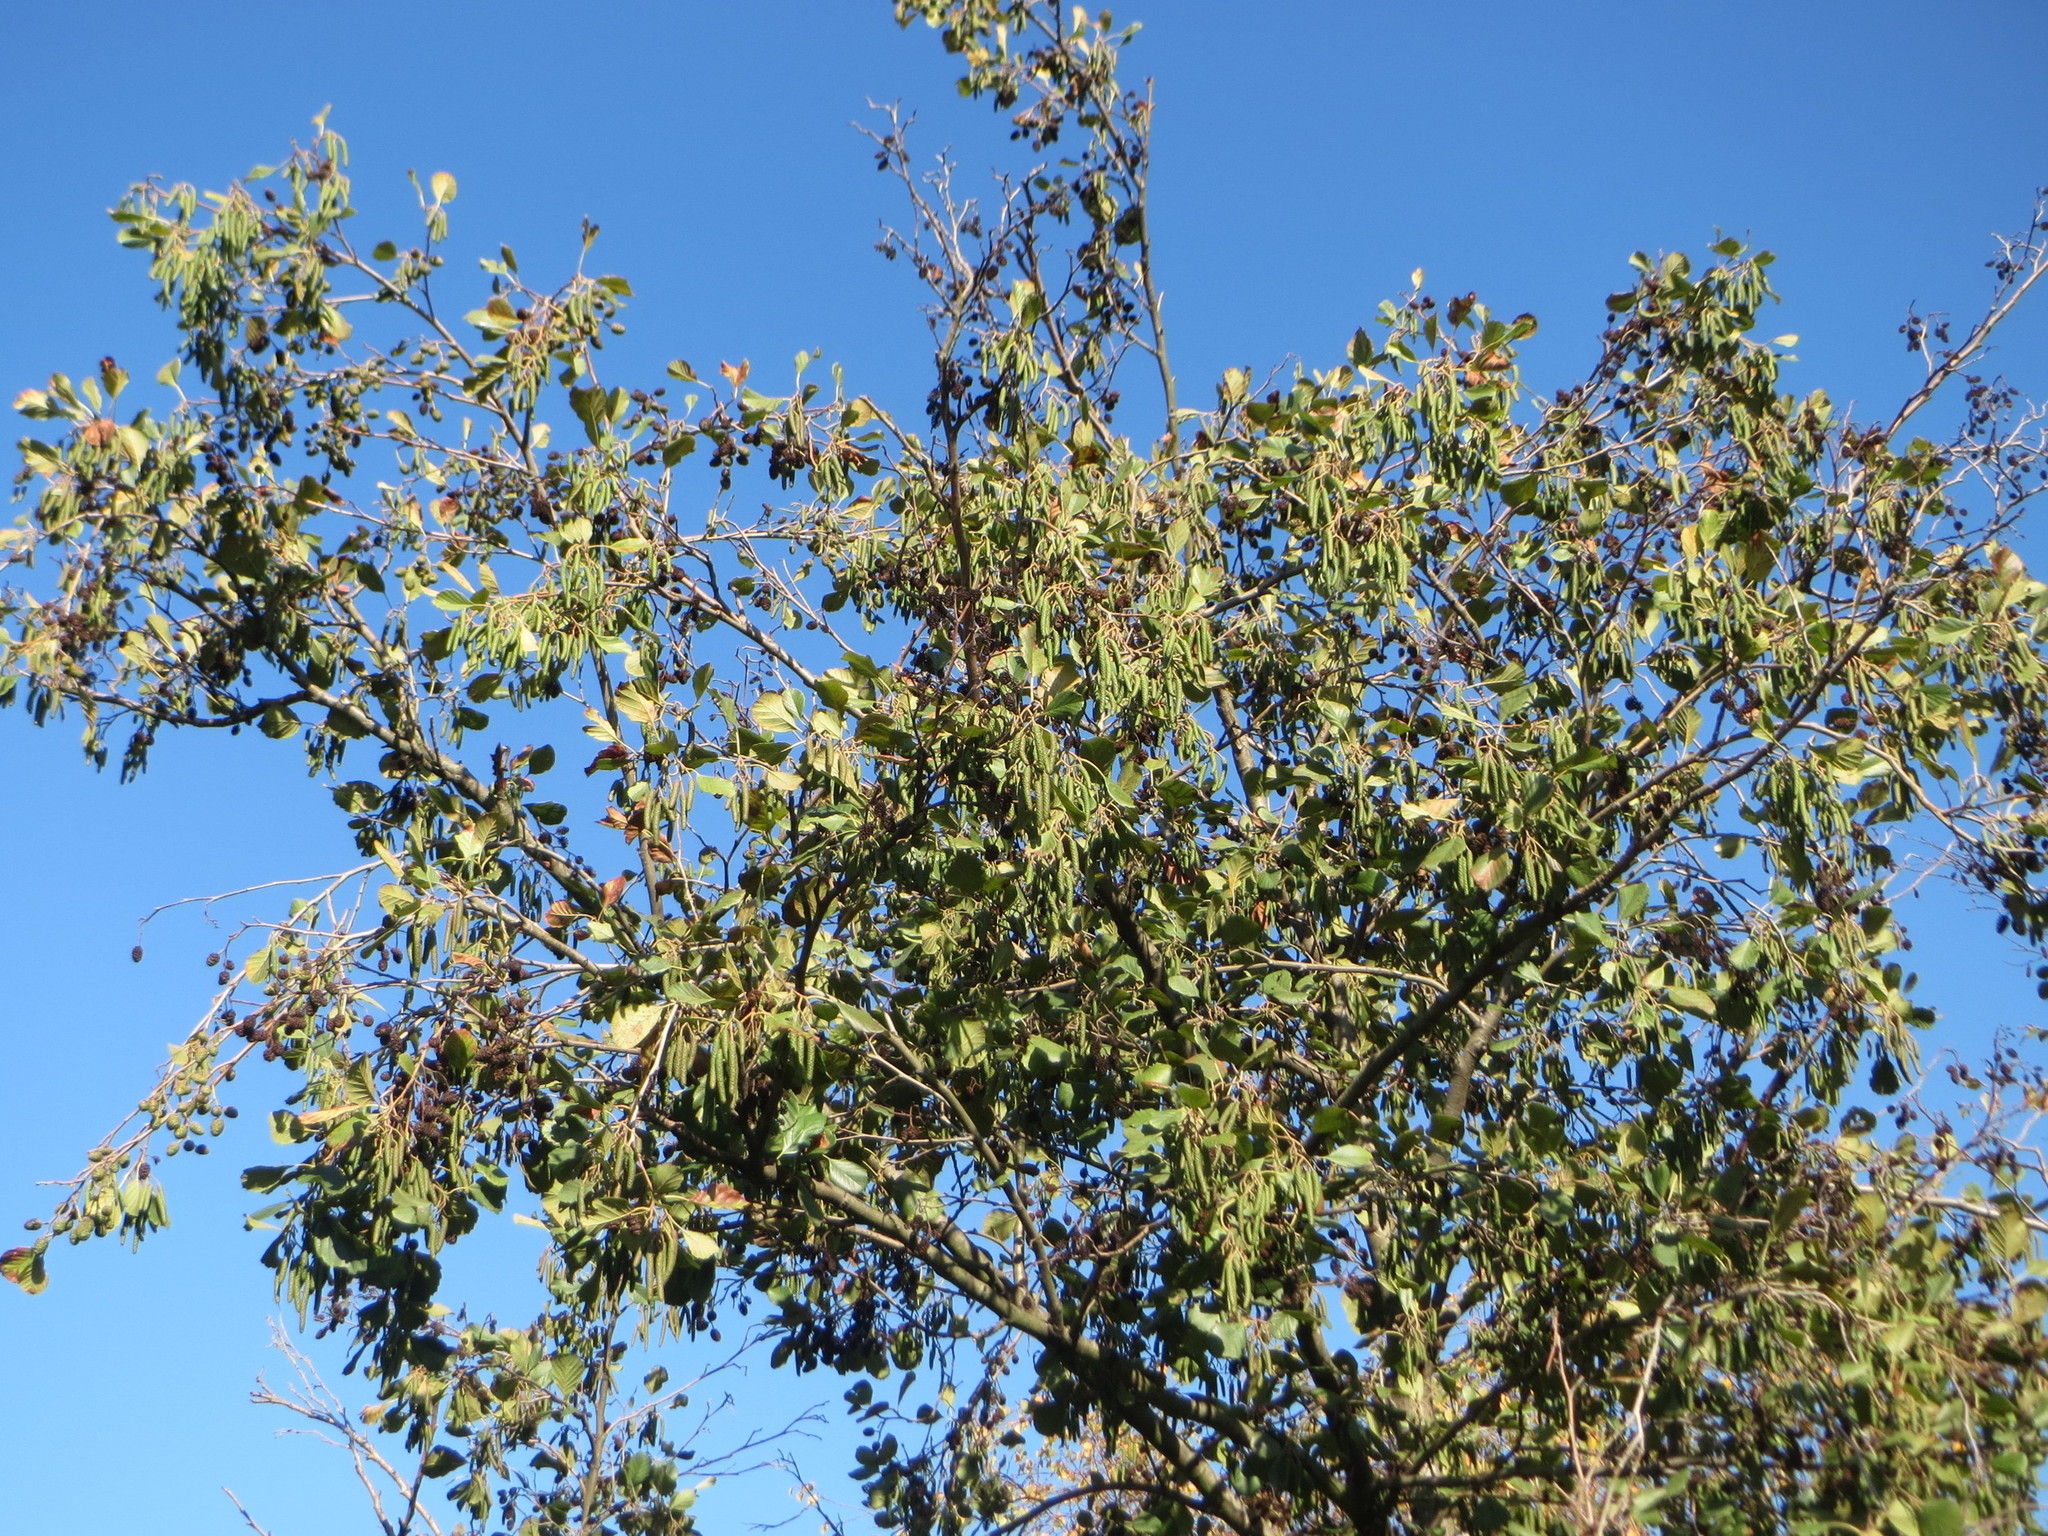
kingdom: Plantae
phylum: Tracheophyta
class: Magnoliopsida
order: Fagales
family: Betulaceae
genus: Alnus
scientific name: Alnus glutinosa
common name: Black alder
